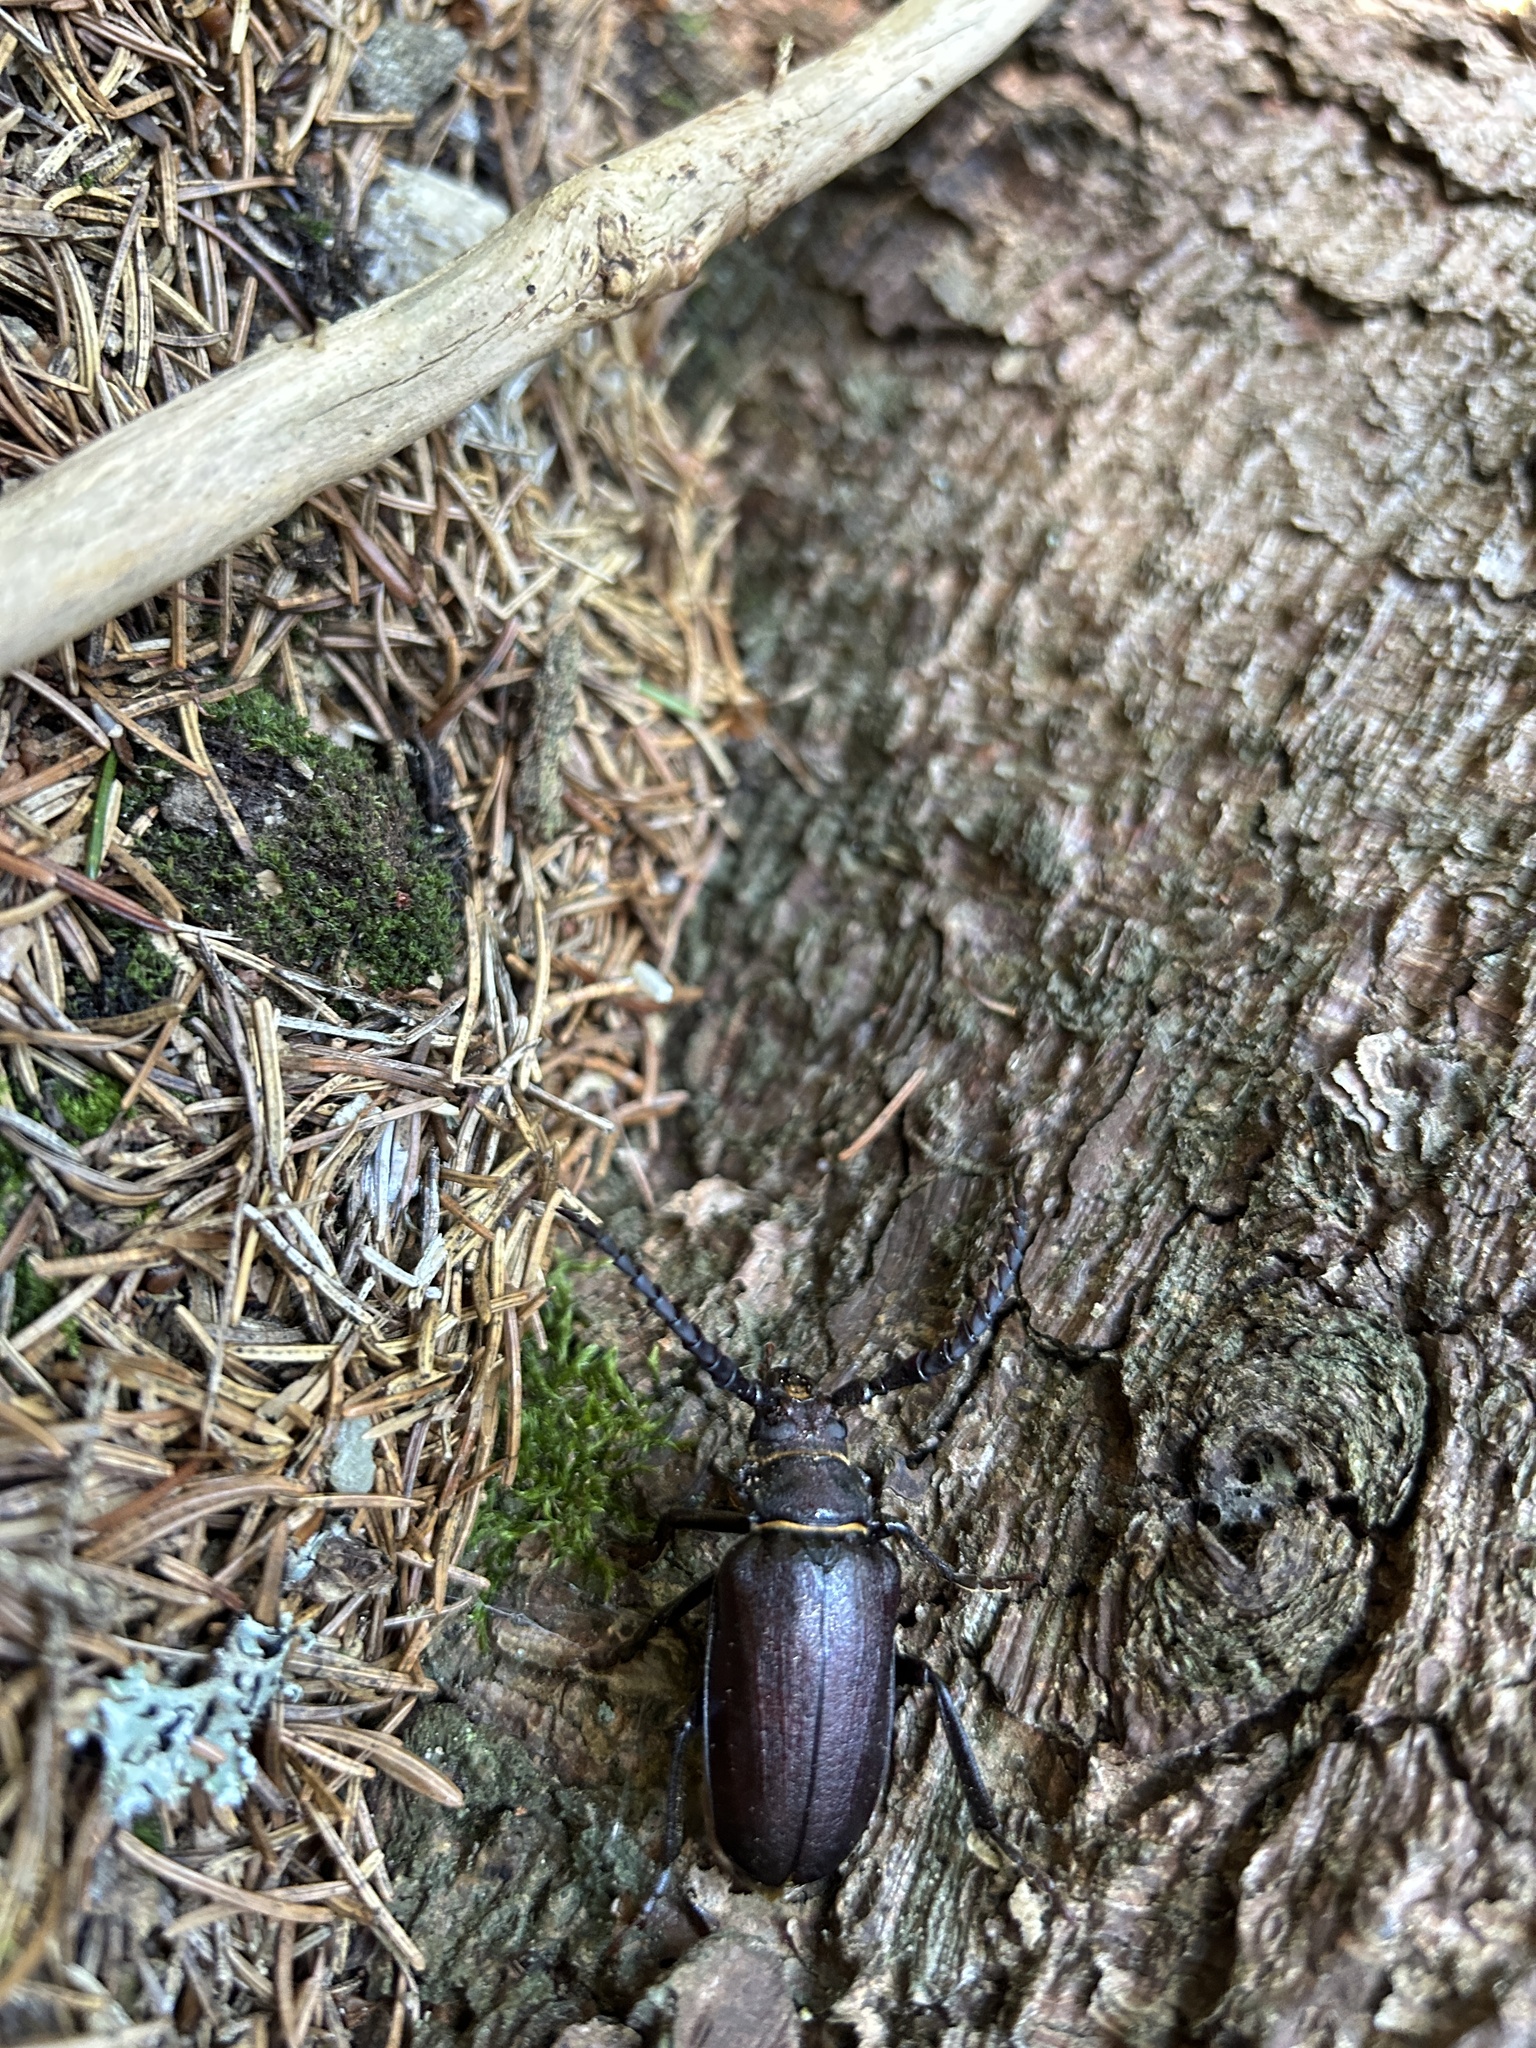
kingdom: Animalia
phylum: Arthropoda
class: Insecta
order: Coleoptera
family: Cerambycidae
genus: Prionus
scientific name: Prionus coriarius
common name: Tanner beetle
